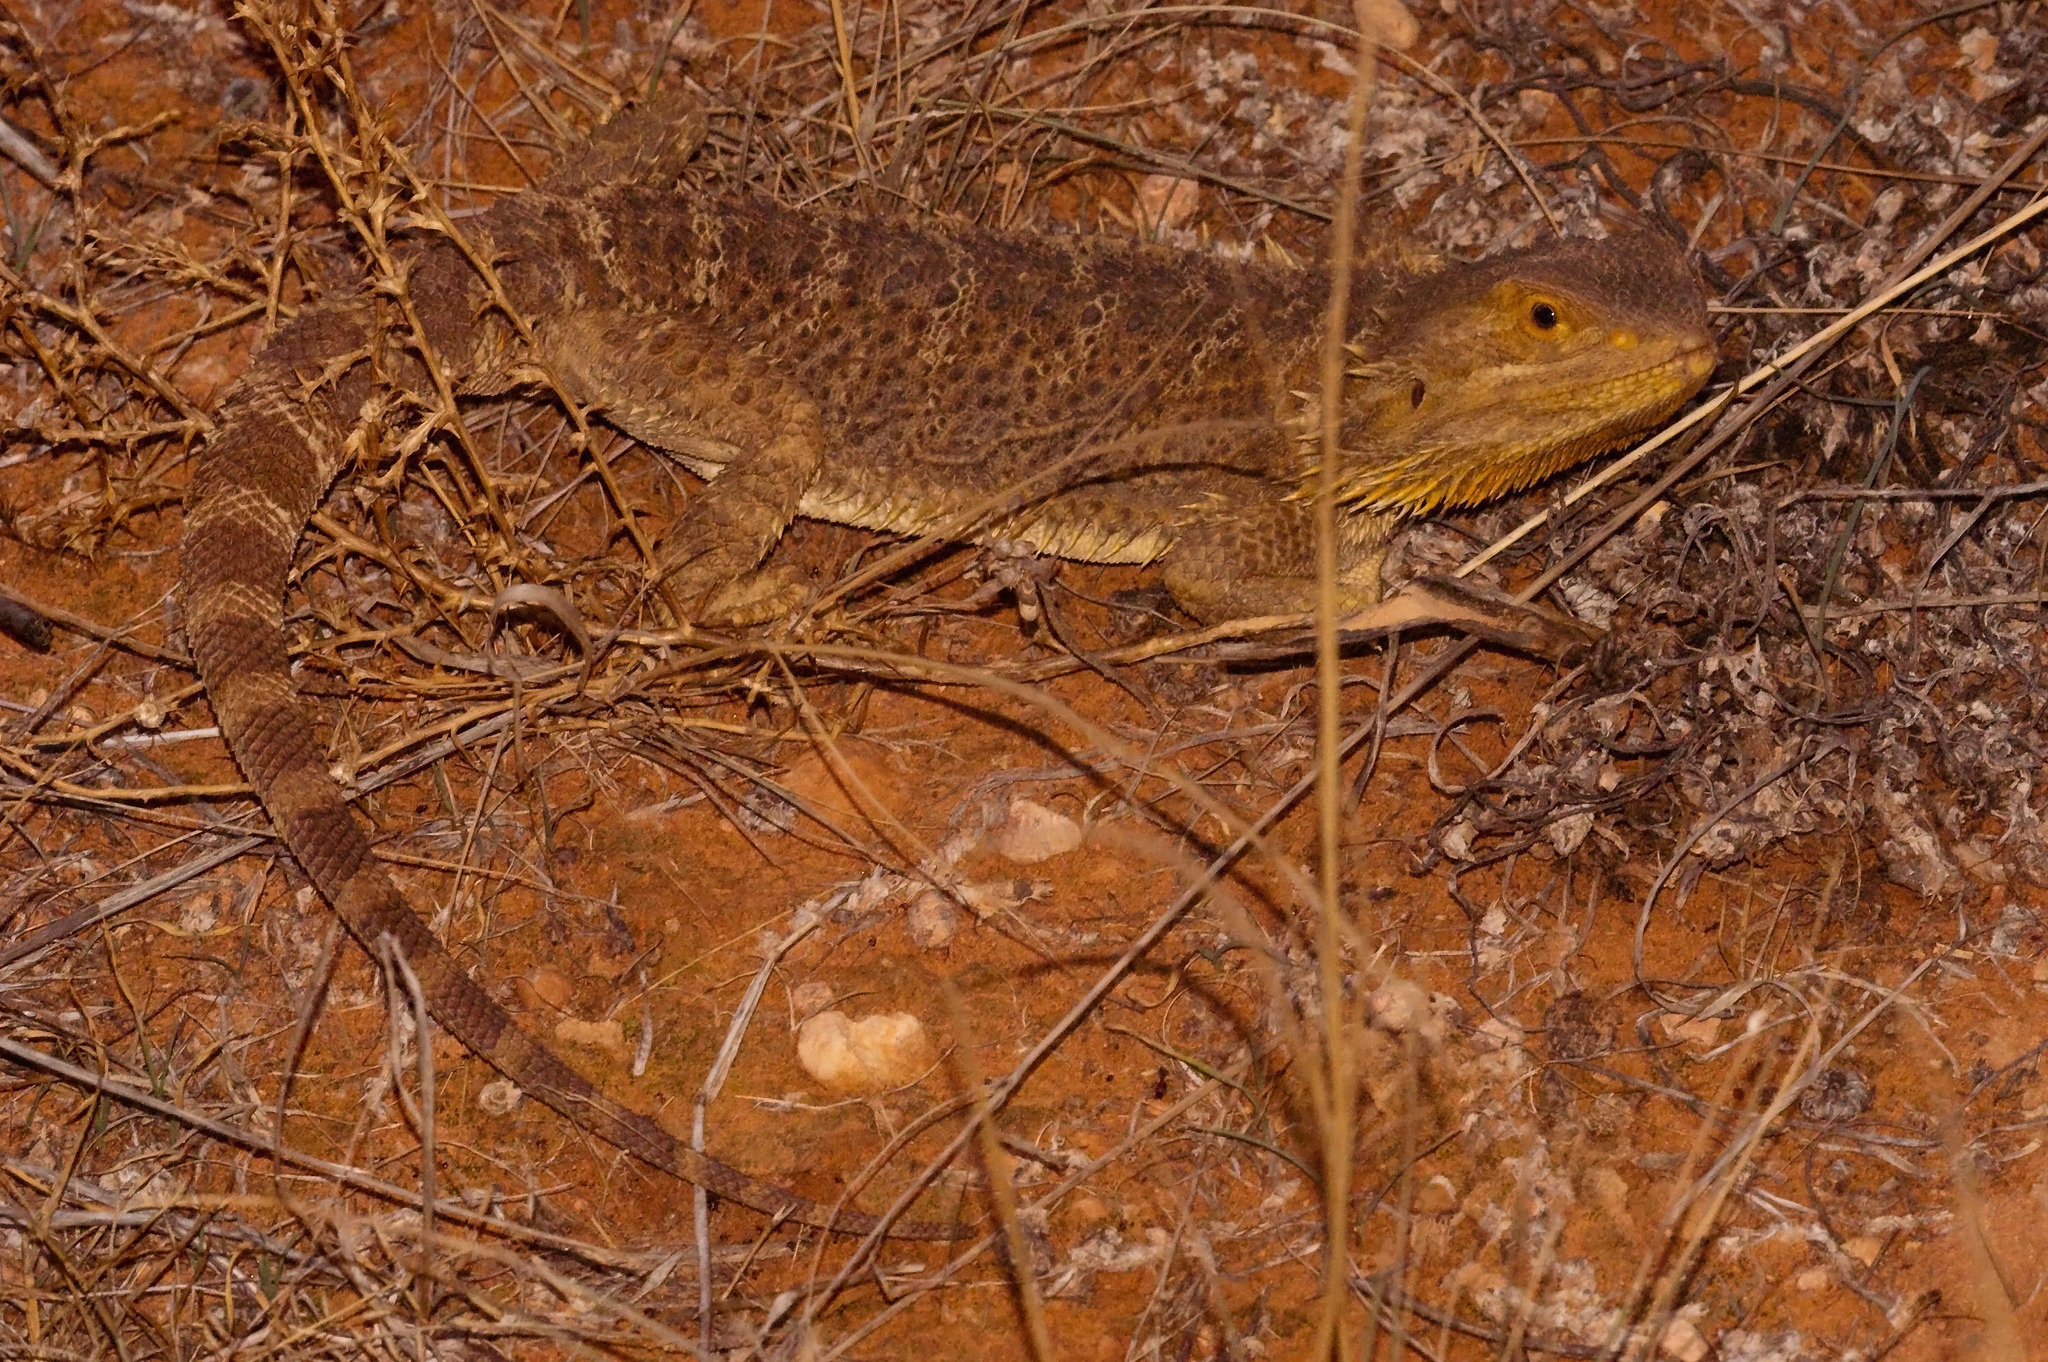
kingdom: Animalia
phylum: Chordata
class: Squamata
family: Agamidae
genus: Pogona
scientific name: Pogona vitticeps
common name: Central bearded dragon
